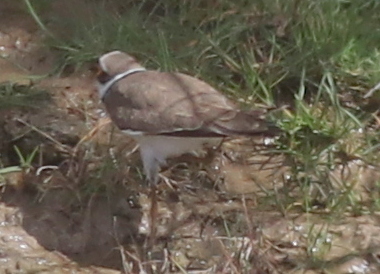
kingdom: Animalia
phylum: Chordata
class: Aves
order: Charadriiformes
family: Charadriidae
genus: Charadrius
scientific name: Charadrius dubius
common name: Little ringed plover
